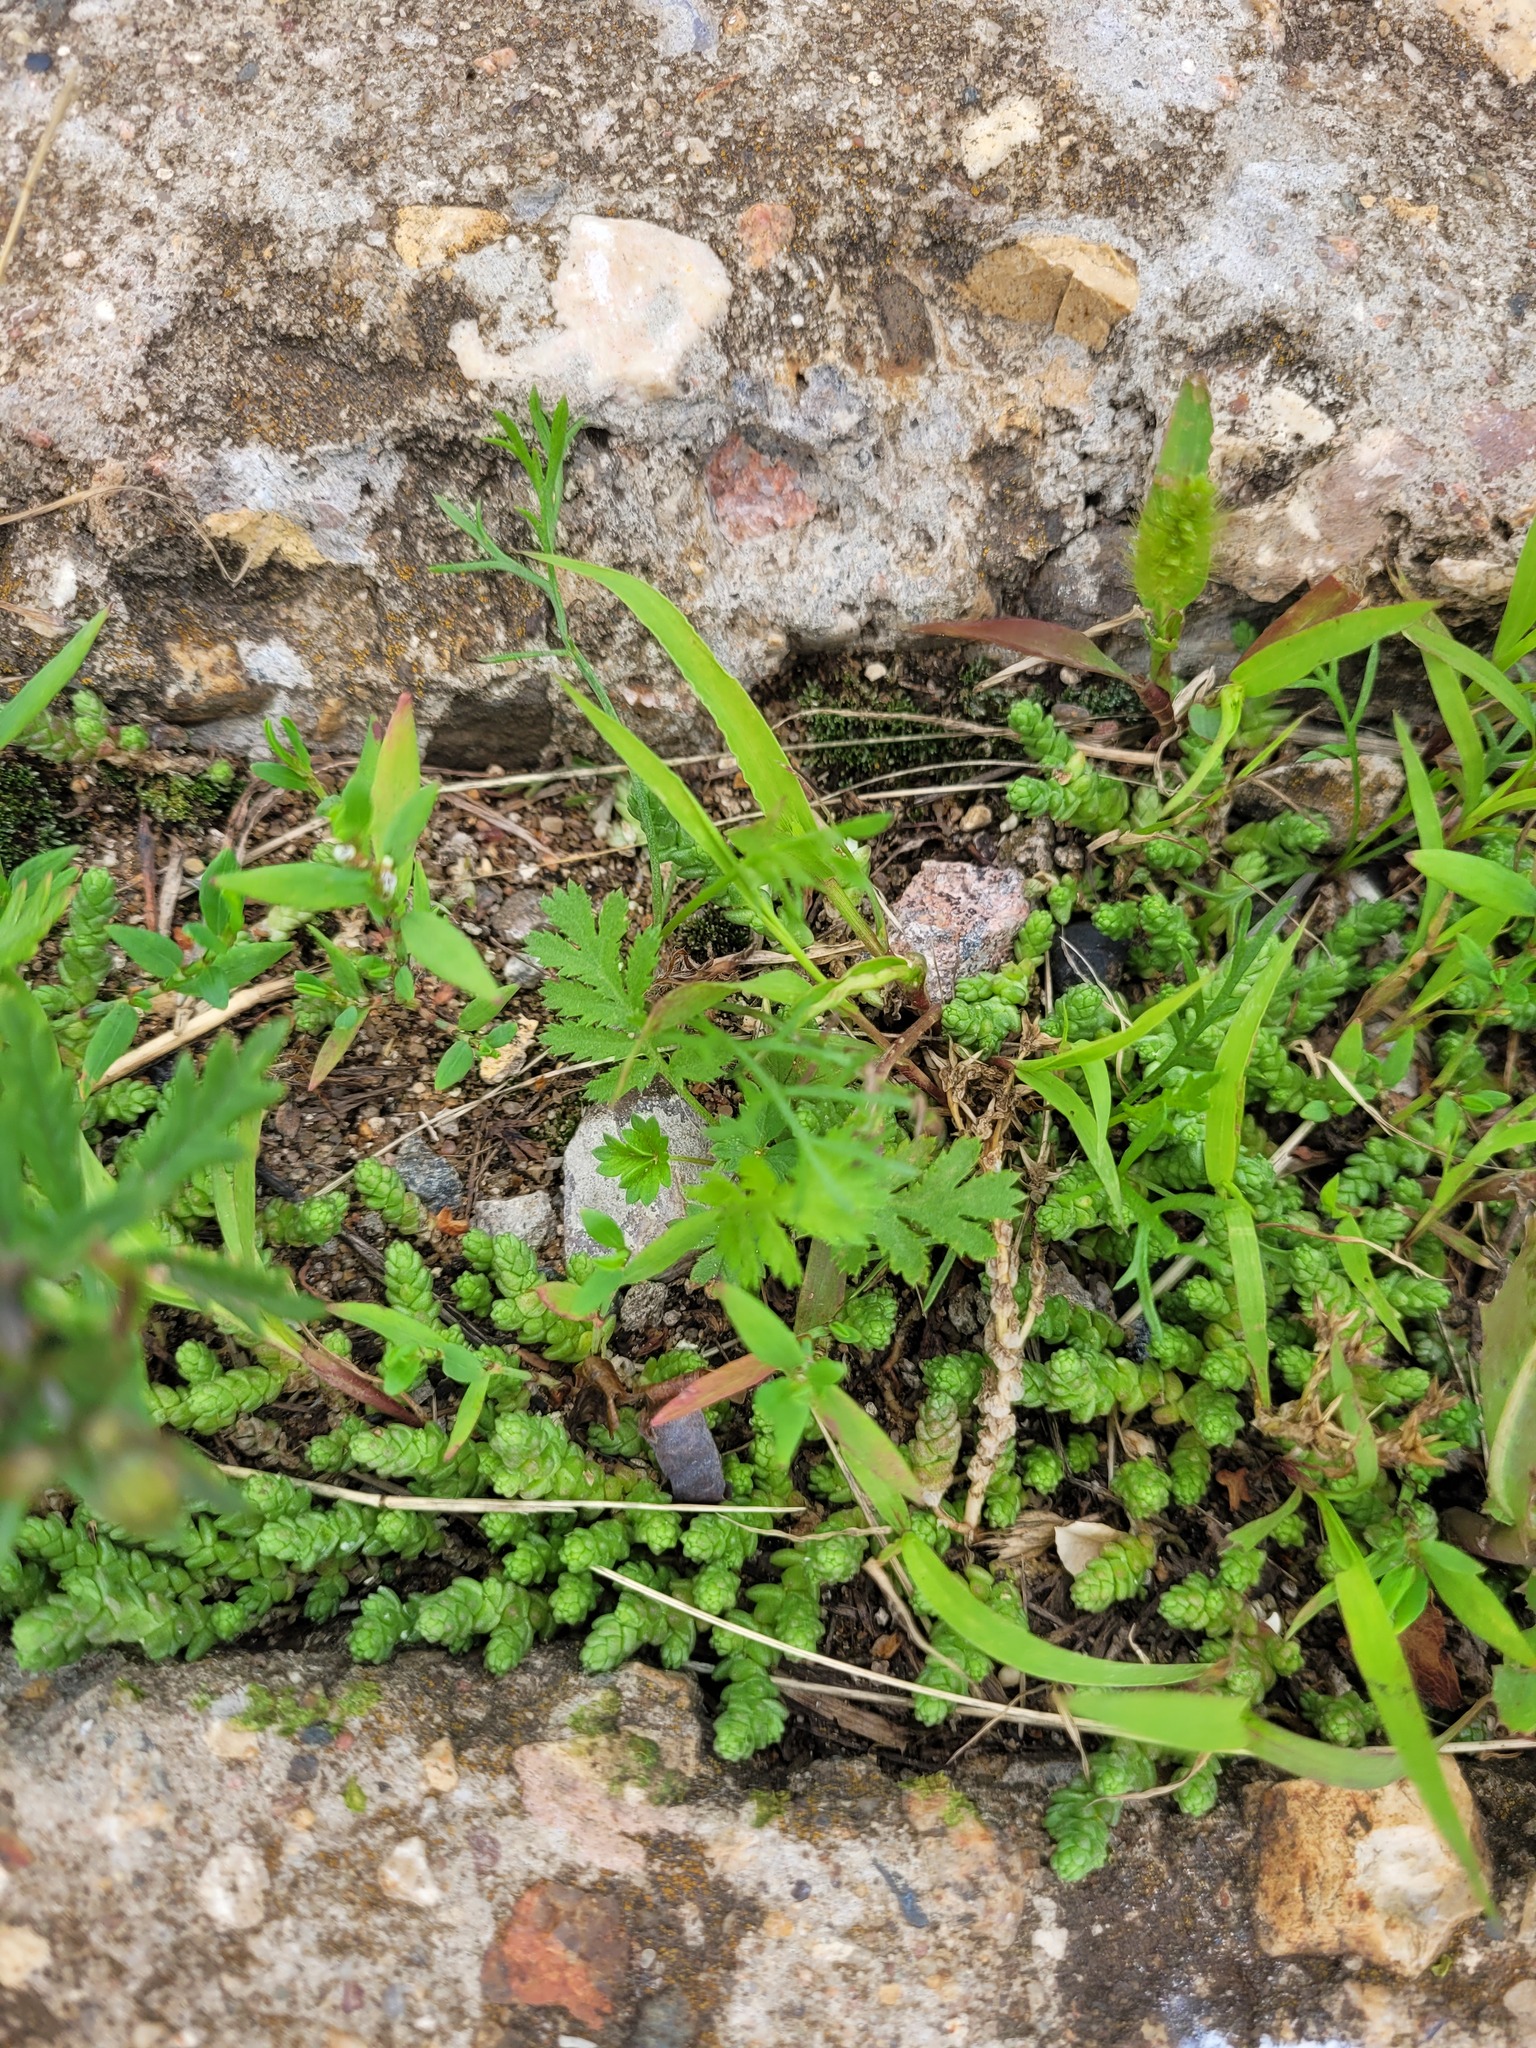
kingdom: Plantae
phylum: Tracheophyta
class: Magnoliopsida
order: Saxifragales
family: Crassulaceae
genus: Sedum
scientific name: Sedum acre
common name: Biting stonecrop
